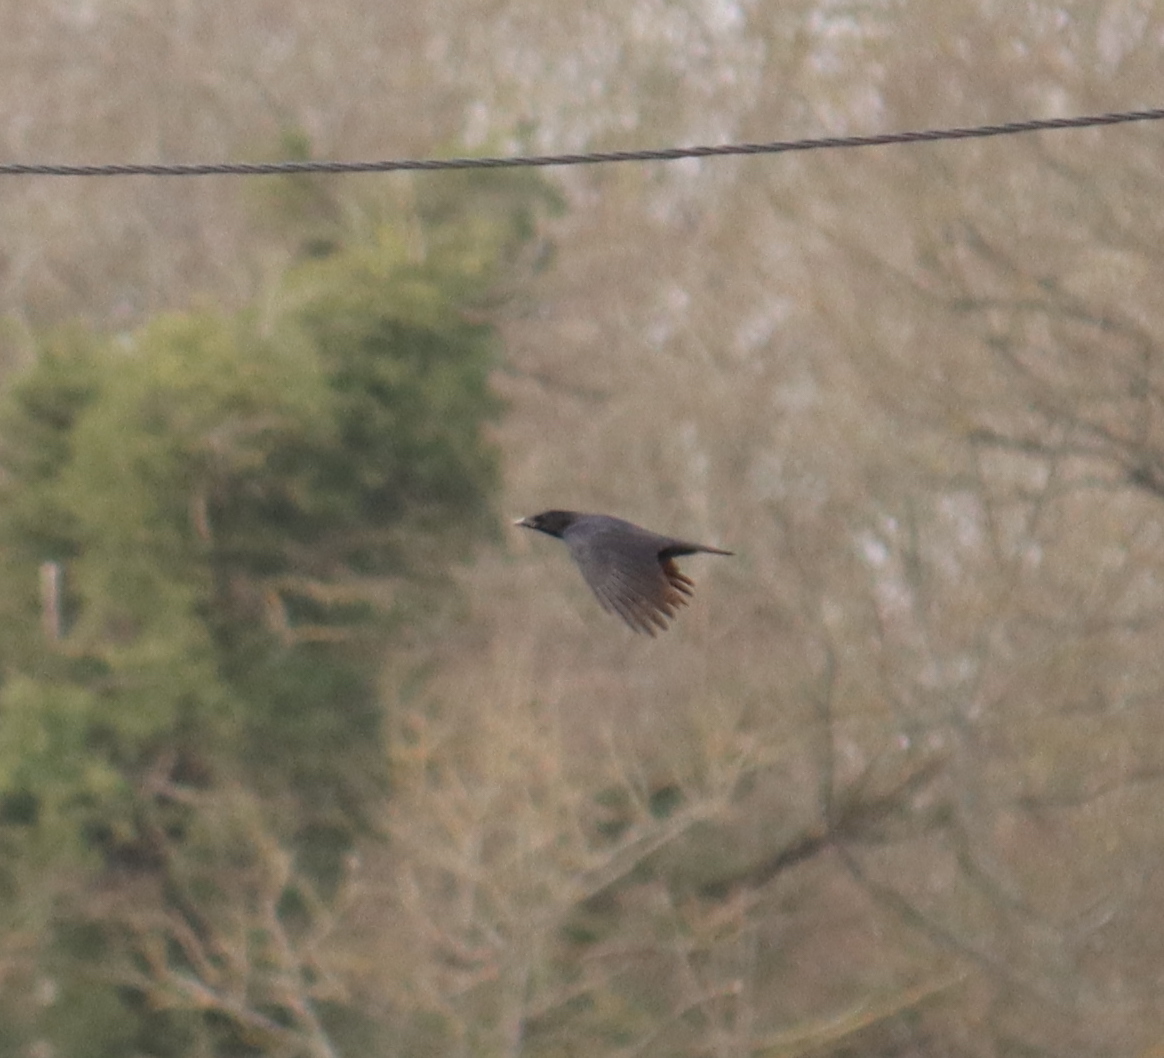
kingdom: Animalia
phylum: Chordata
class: Aves
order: Passeriformes
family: Corvidae
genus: Corvus
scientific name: Corvus corone
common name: Carrion crow
